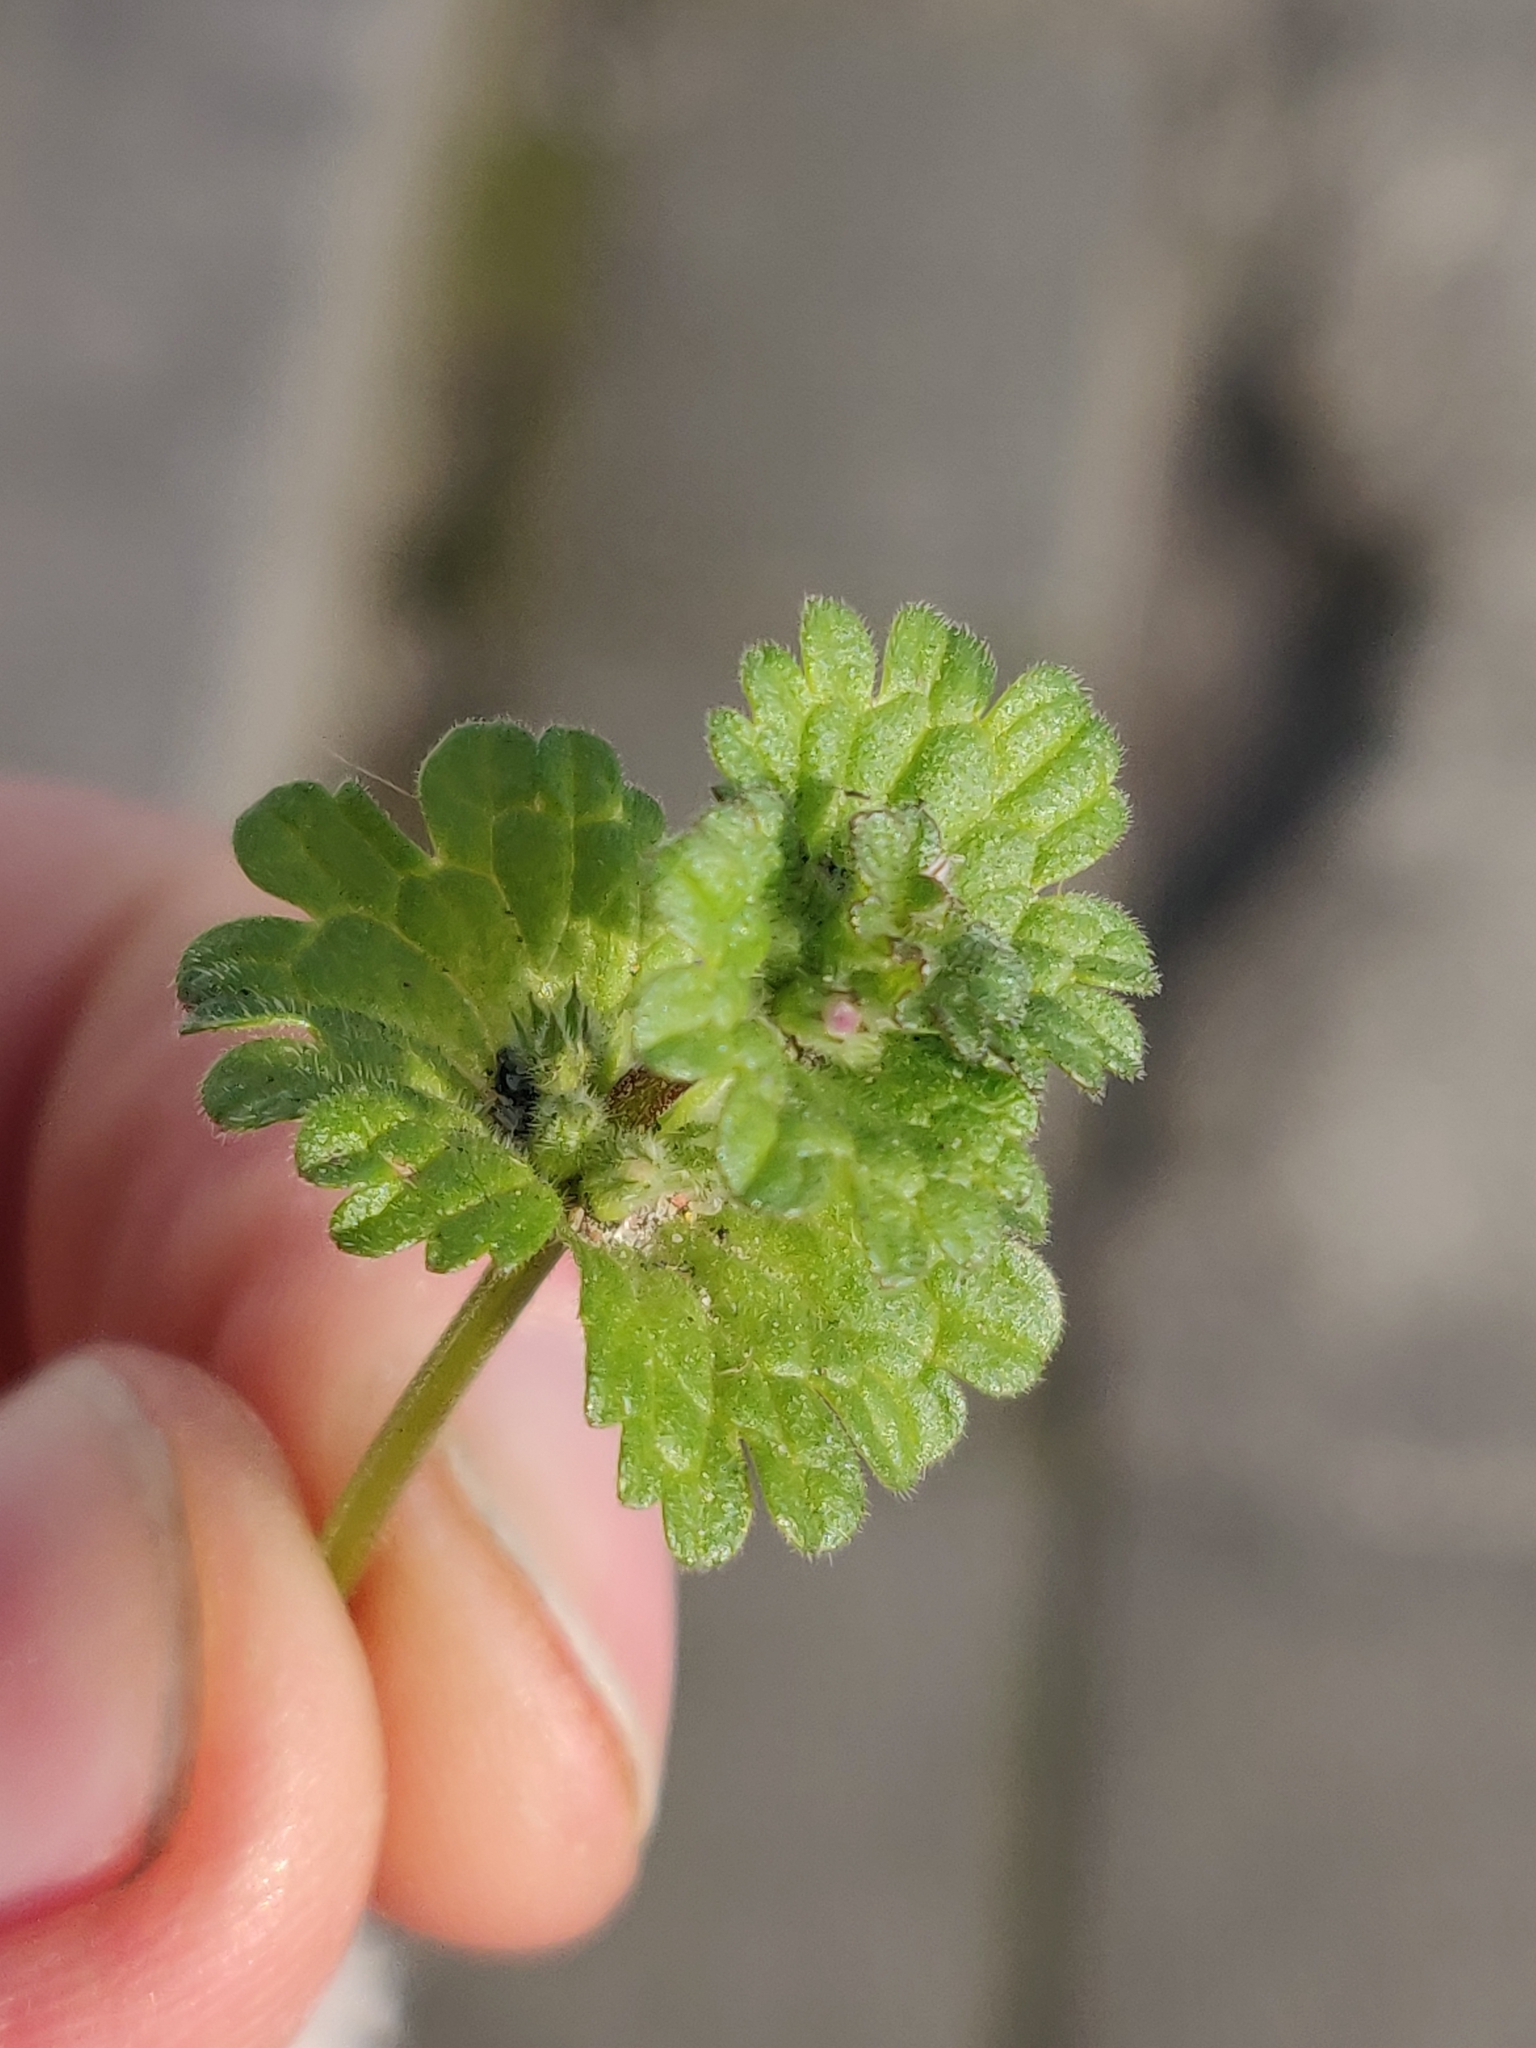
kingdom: Plantae
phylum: Tracheophyta
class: Magnoliopsida
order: Lamiales
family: Lamiaceae
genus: Lamium
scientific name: Lamium amplexicaule
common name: Henbit dead-nettle
